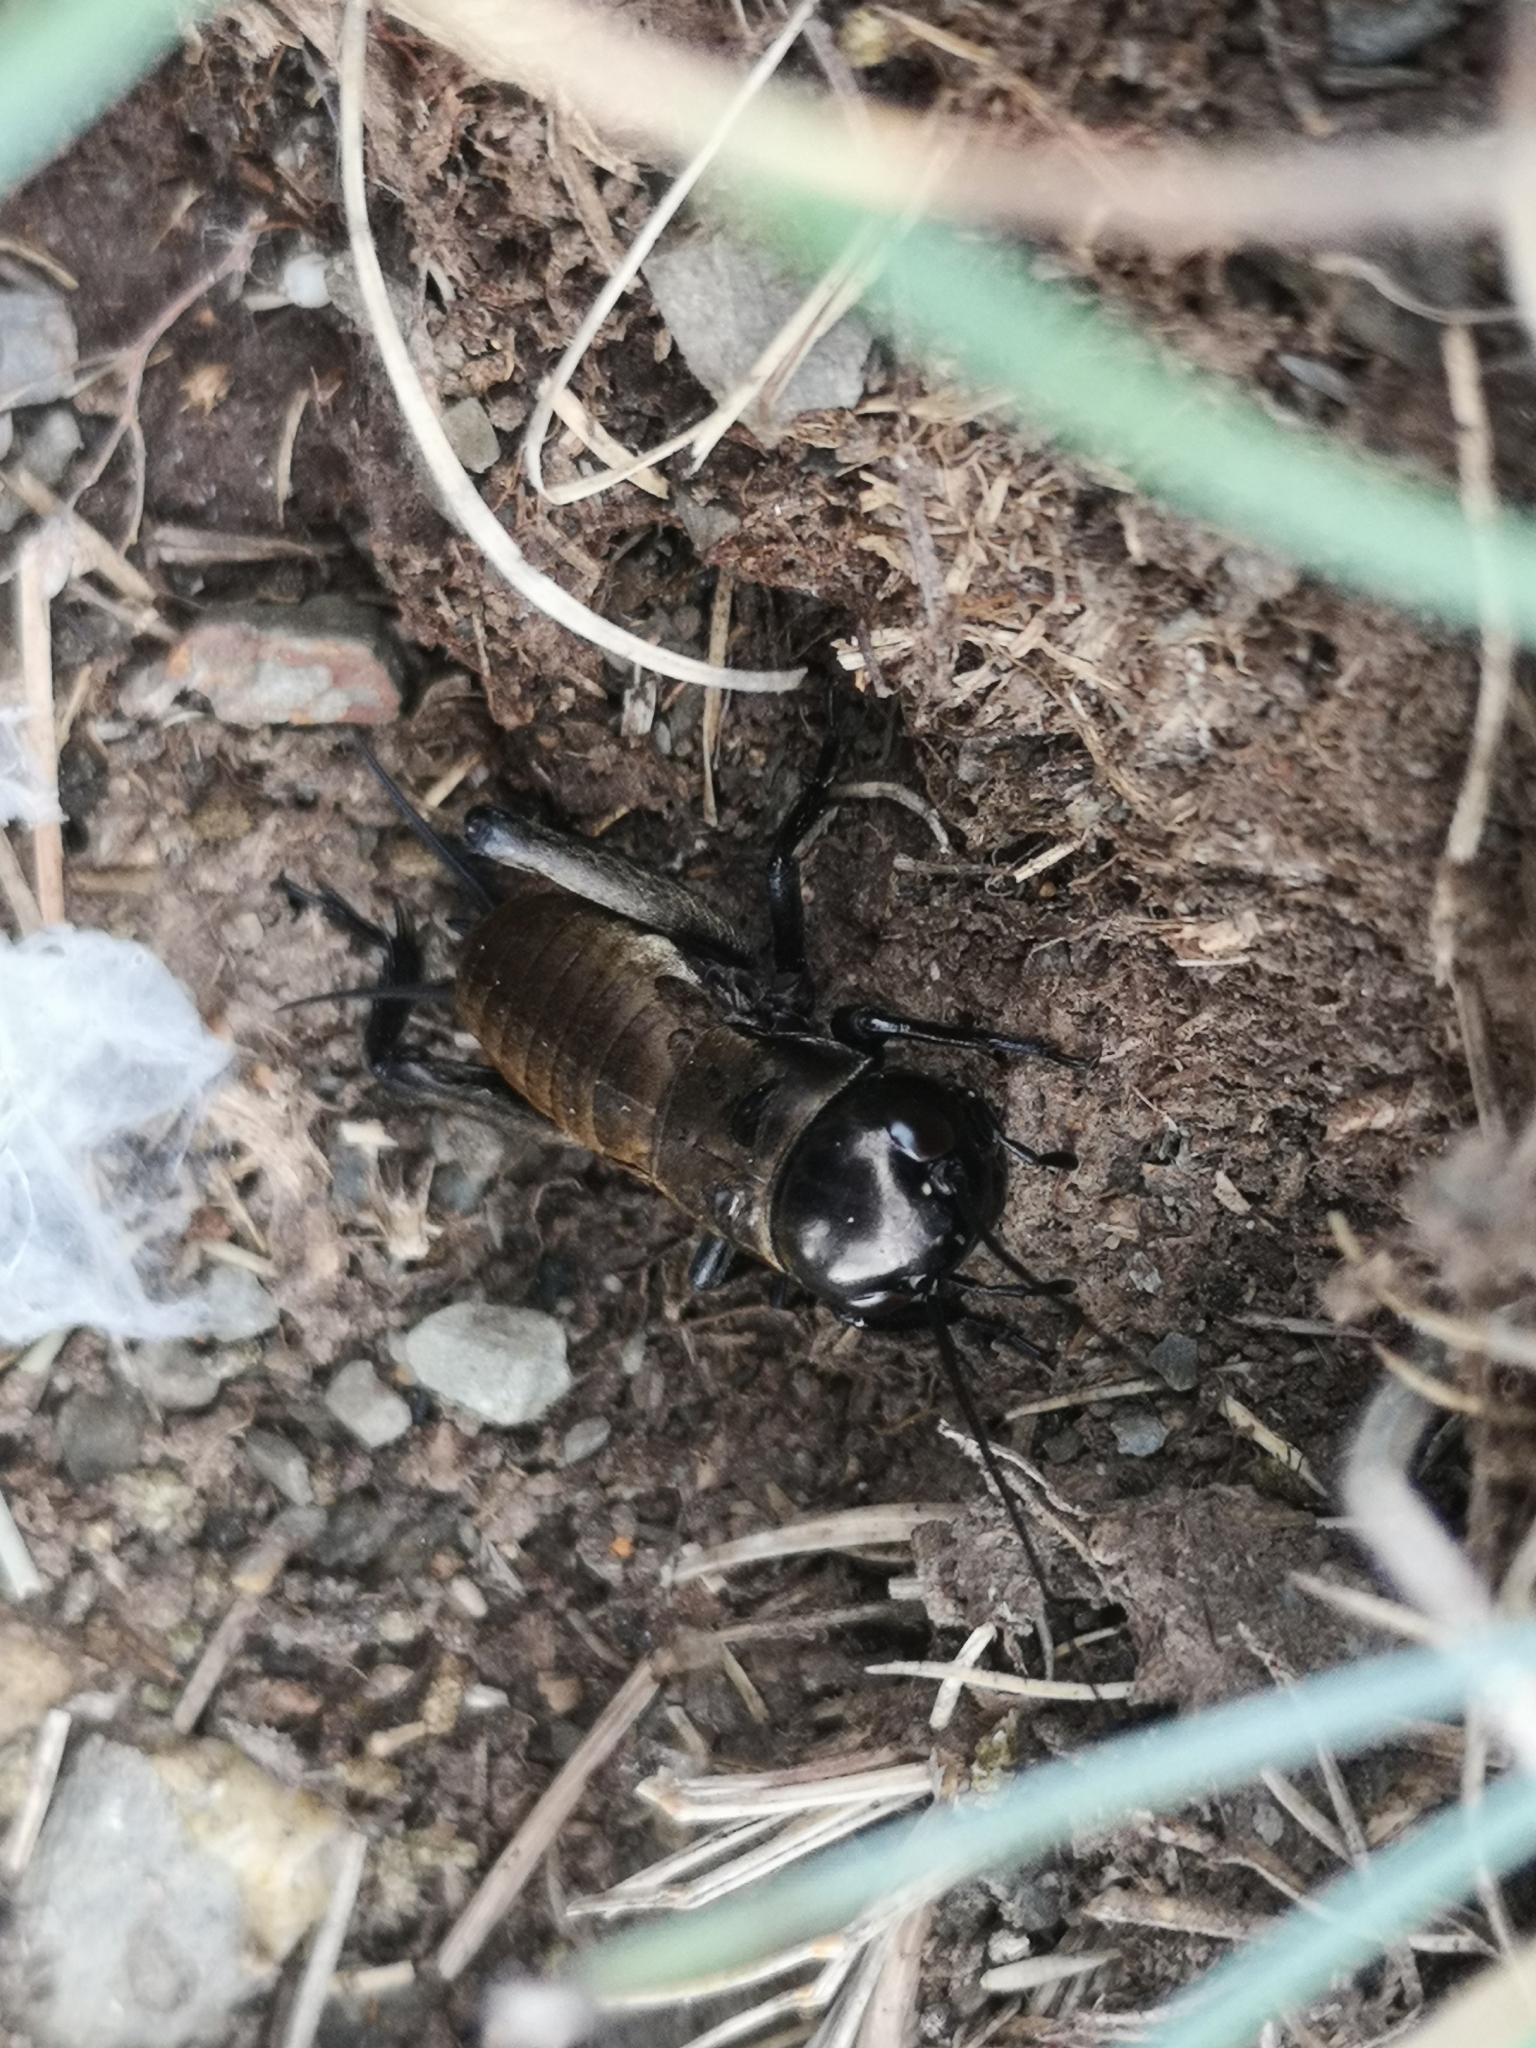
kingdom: Animalia
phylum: Arthropoda
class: Insecta
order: Orthoptera
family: Gryllidae
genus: Gryllus
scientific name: Gryllus campestris
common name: Field cricket
